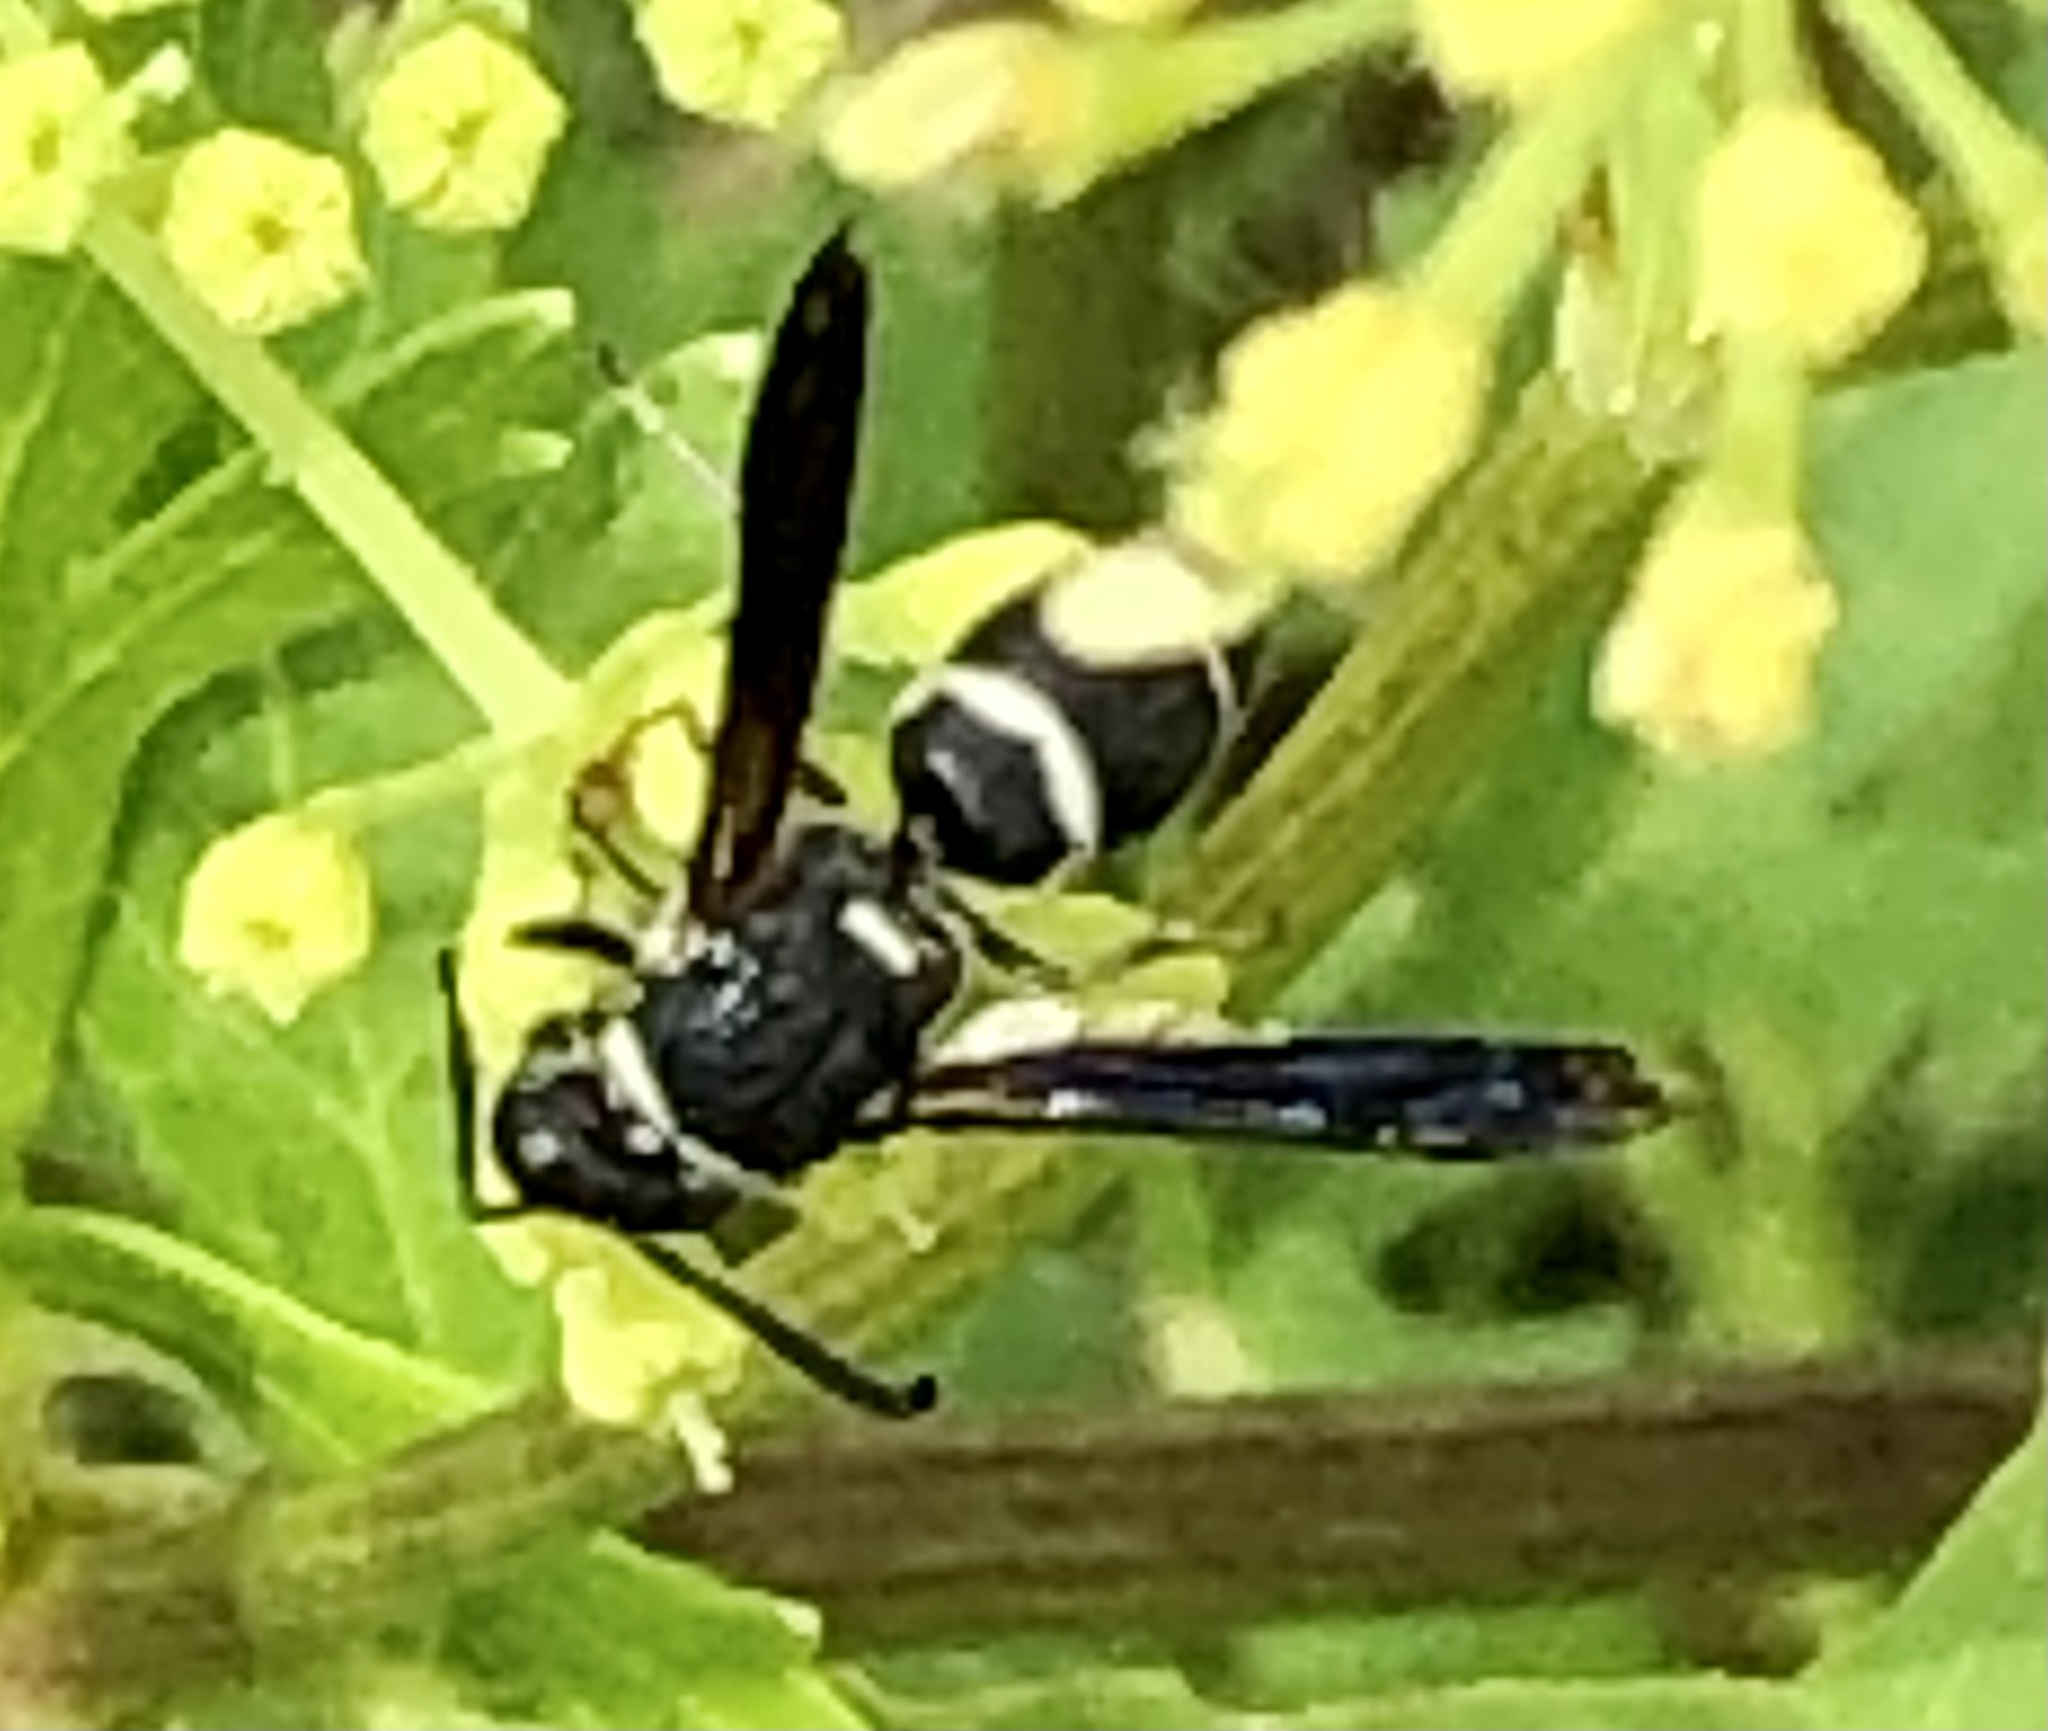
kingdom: Animalia
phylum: Arthropoda
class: Insecta
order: Hymenoptera
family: Eumenidae
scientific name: Eumenidae
